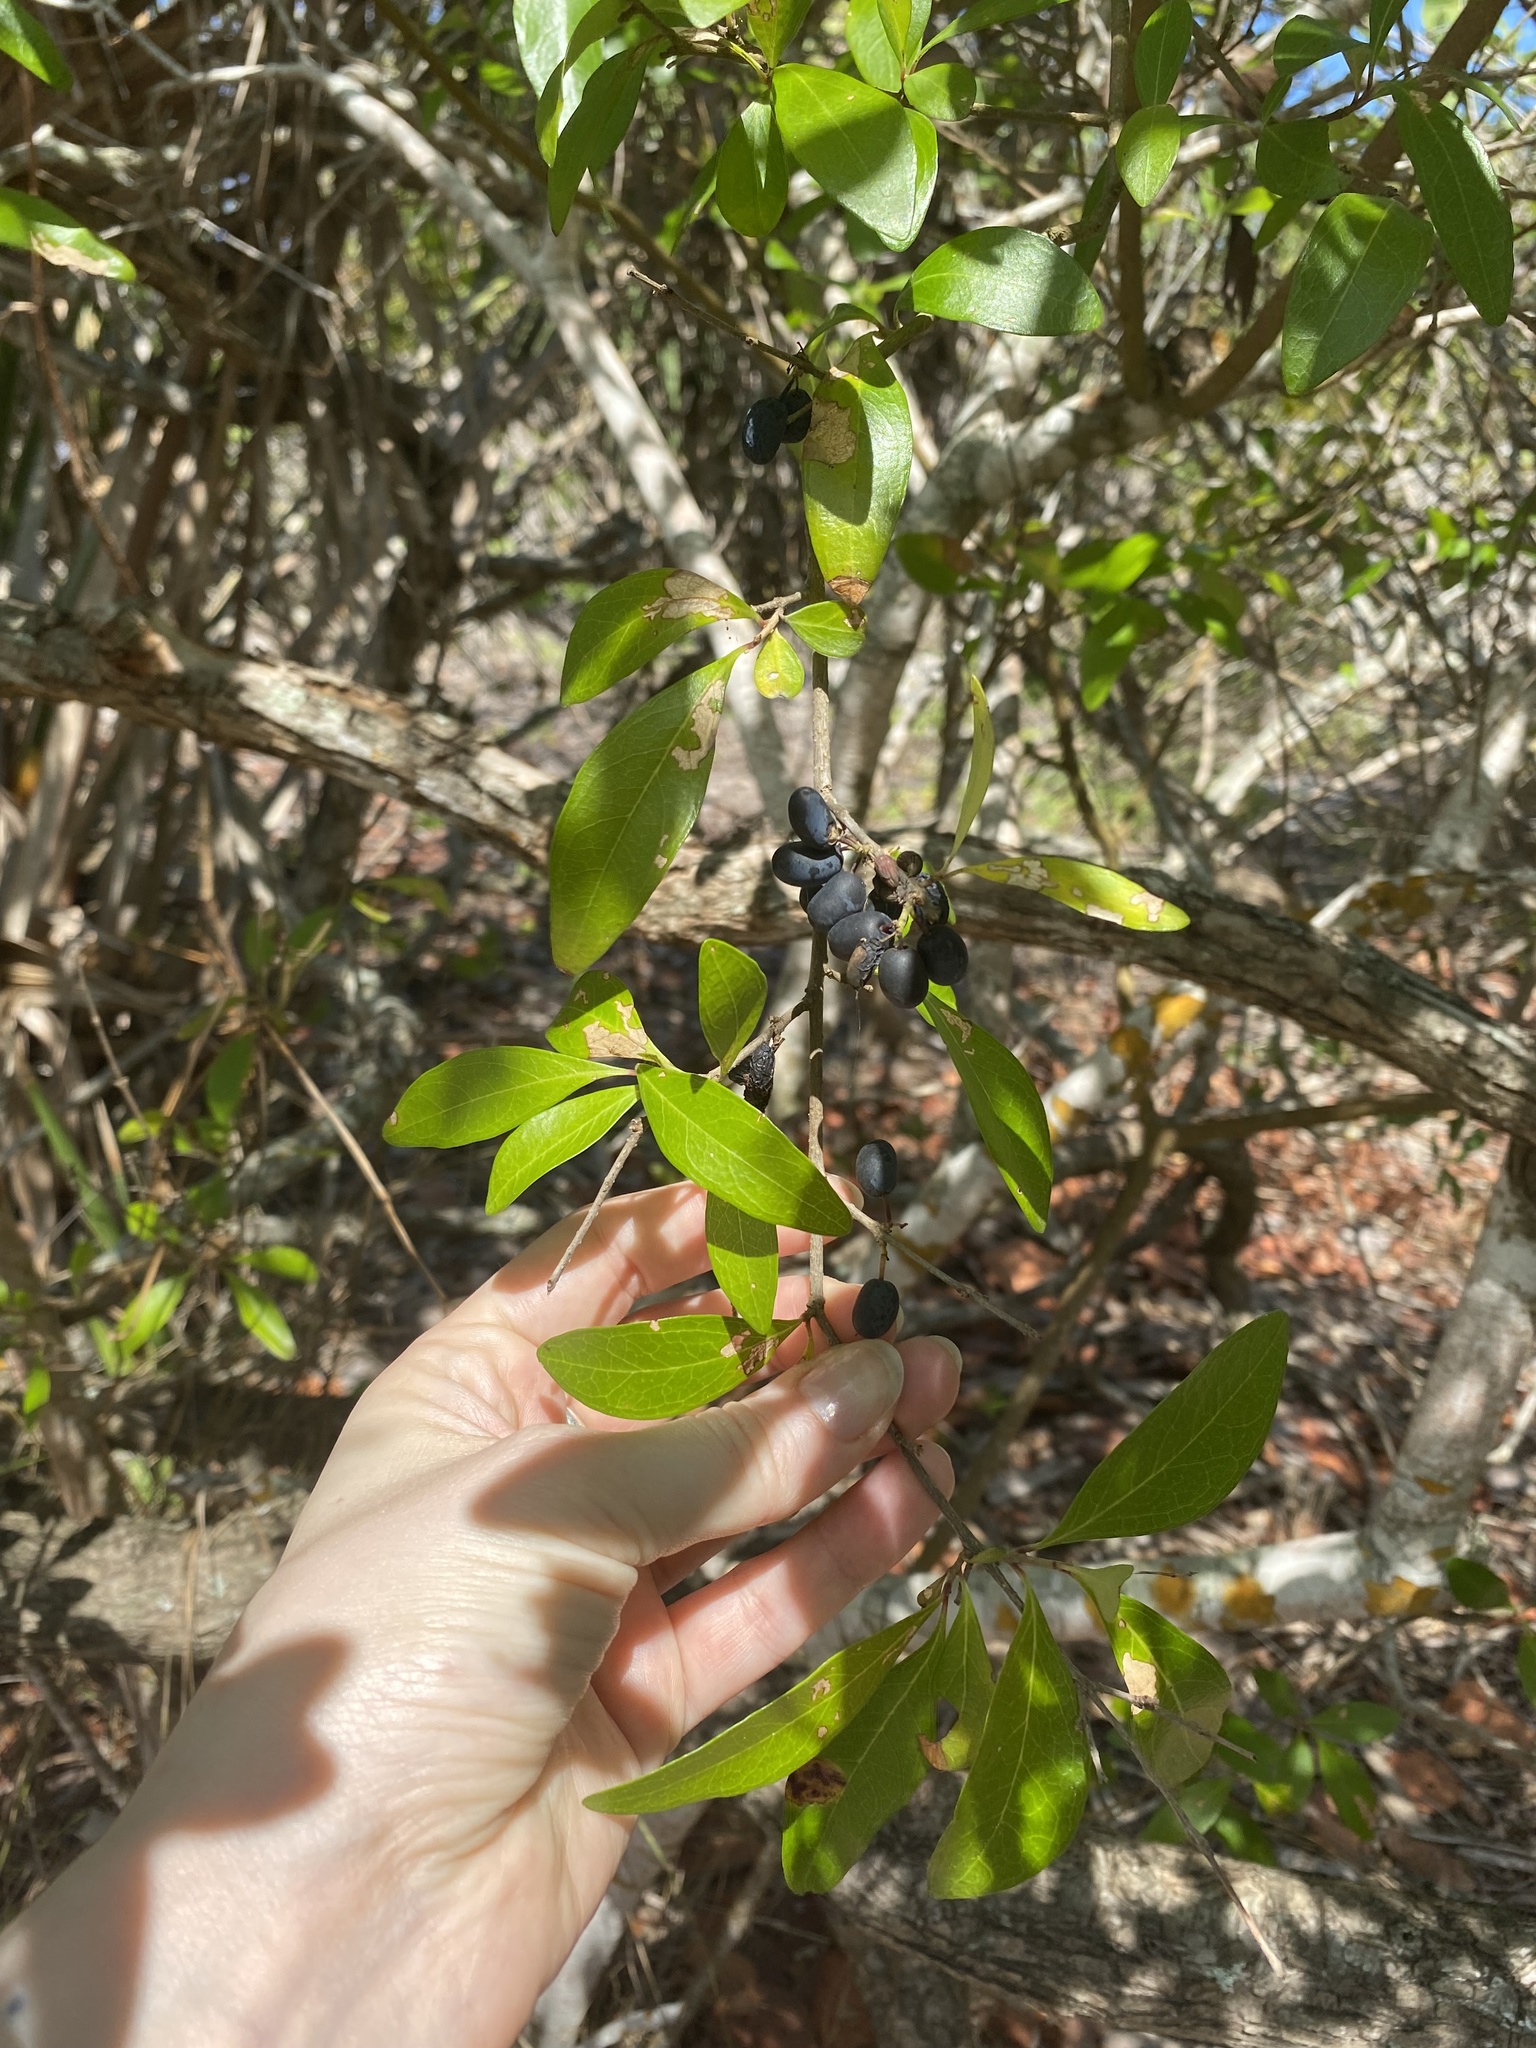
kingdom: Plantae
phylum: Tracheophyta
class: Magnoliopsida
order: Lamiales
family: Oleaceae
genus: Forestiera
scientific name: Forestiera segregata
